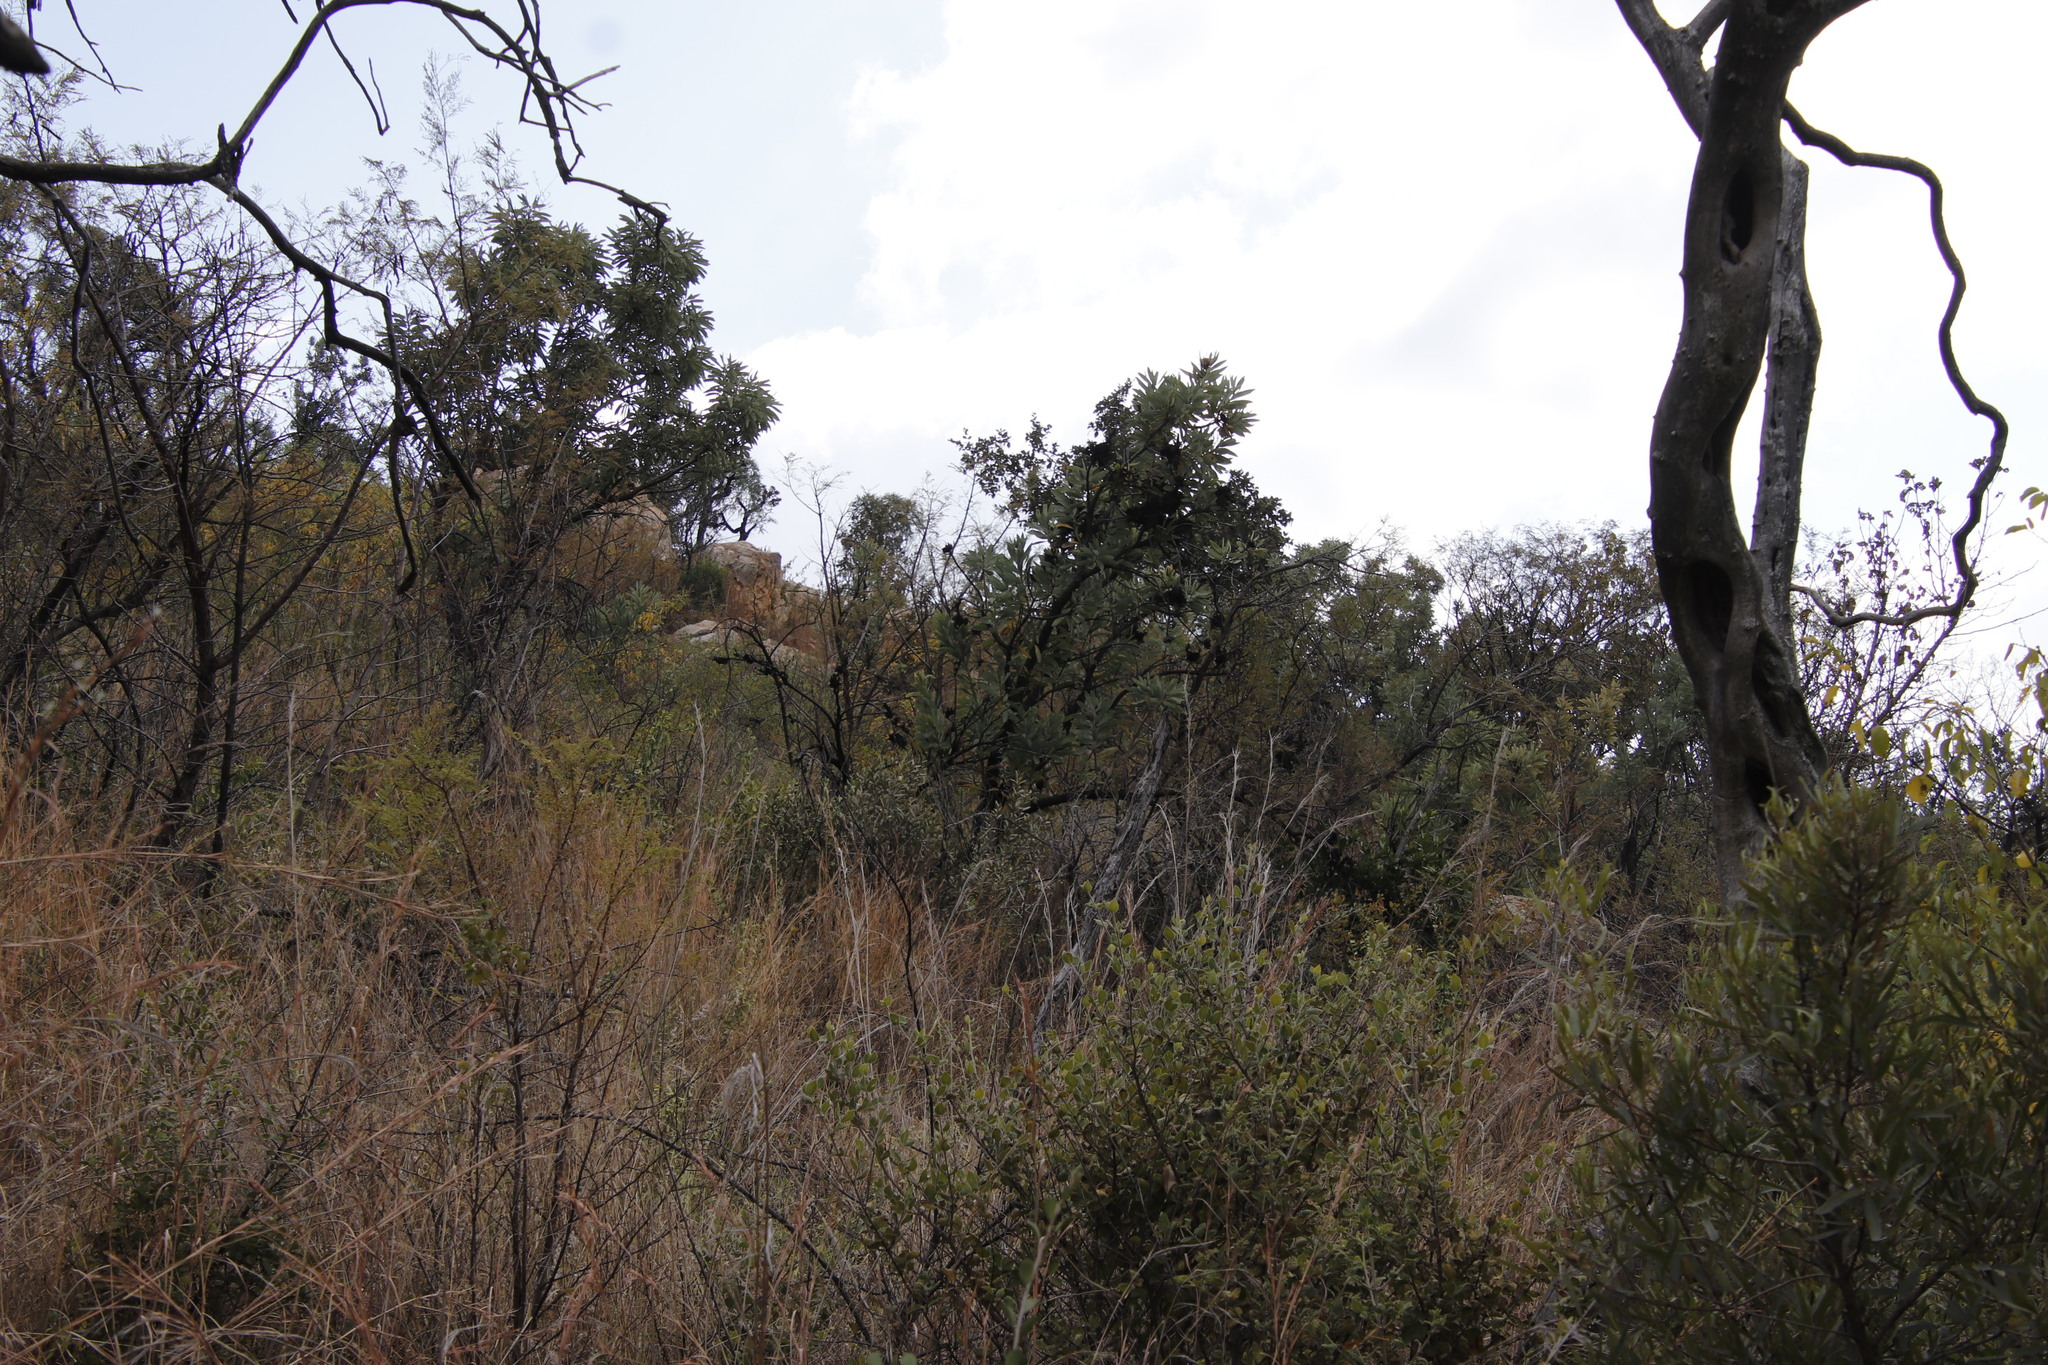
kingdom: Plantae
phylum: Tracheophyta
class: Magnoliopsida
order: Proteales
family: Proteaceae
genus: Protea
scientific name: Protea caffra
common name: Common sugarbush
